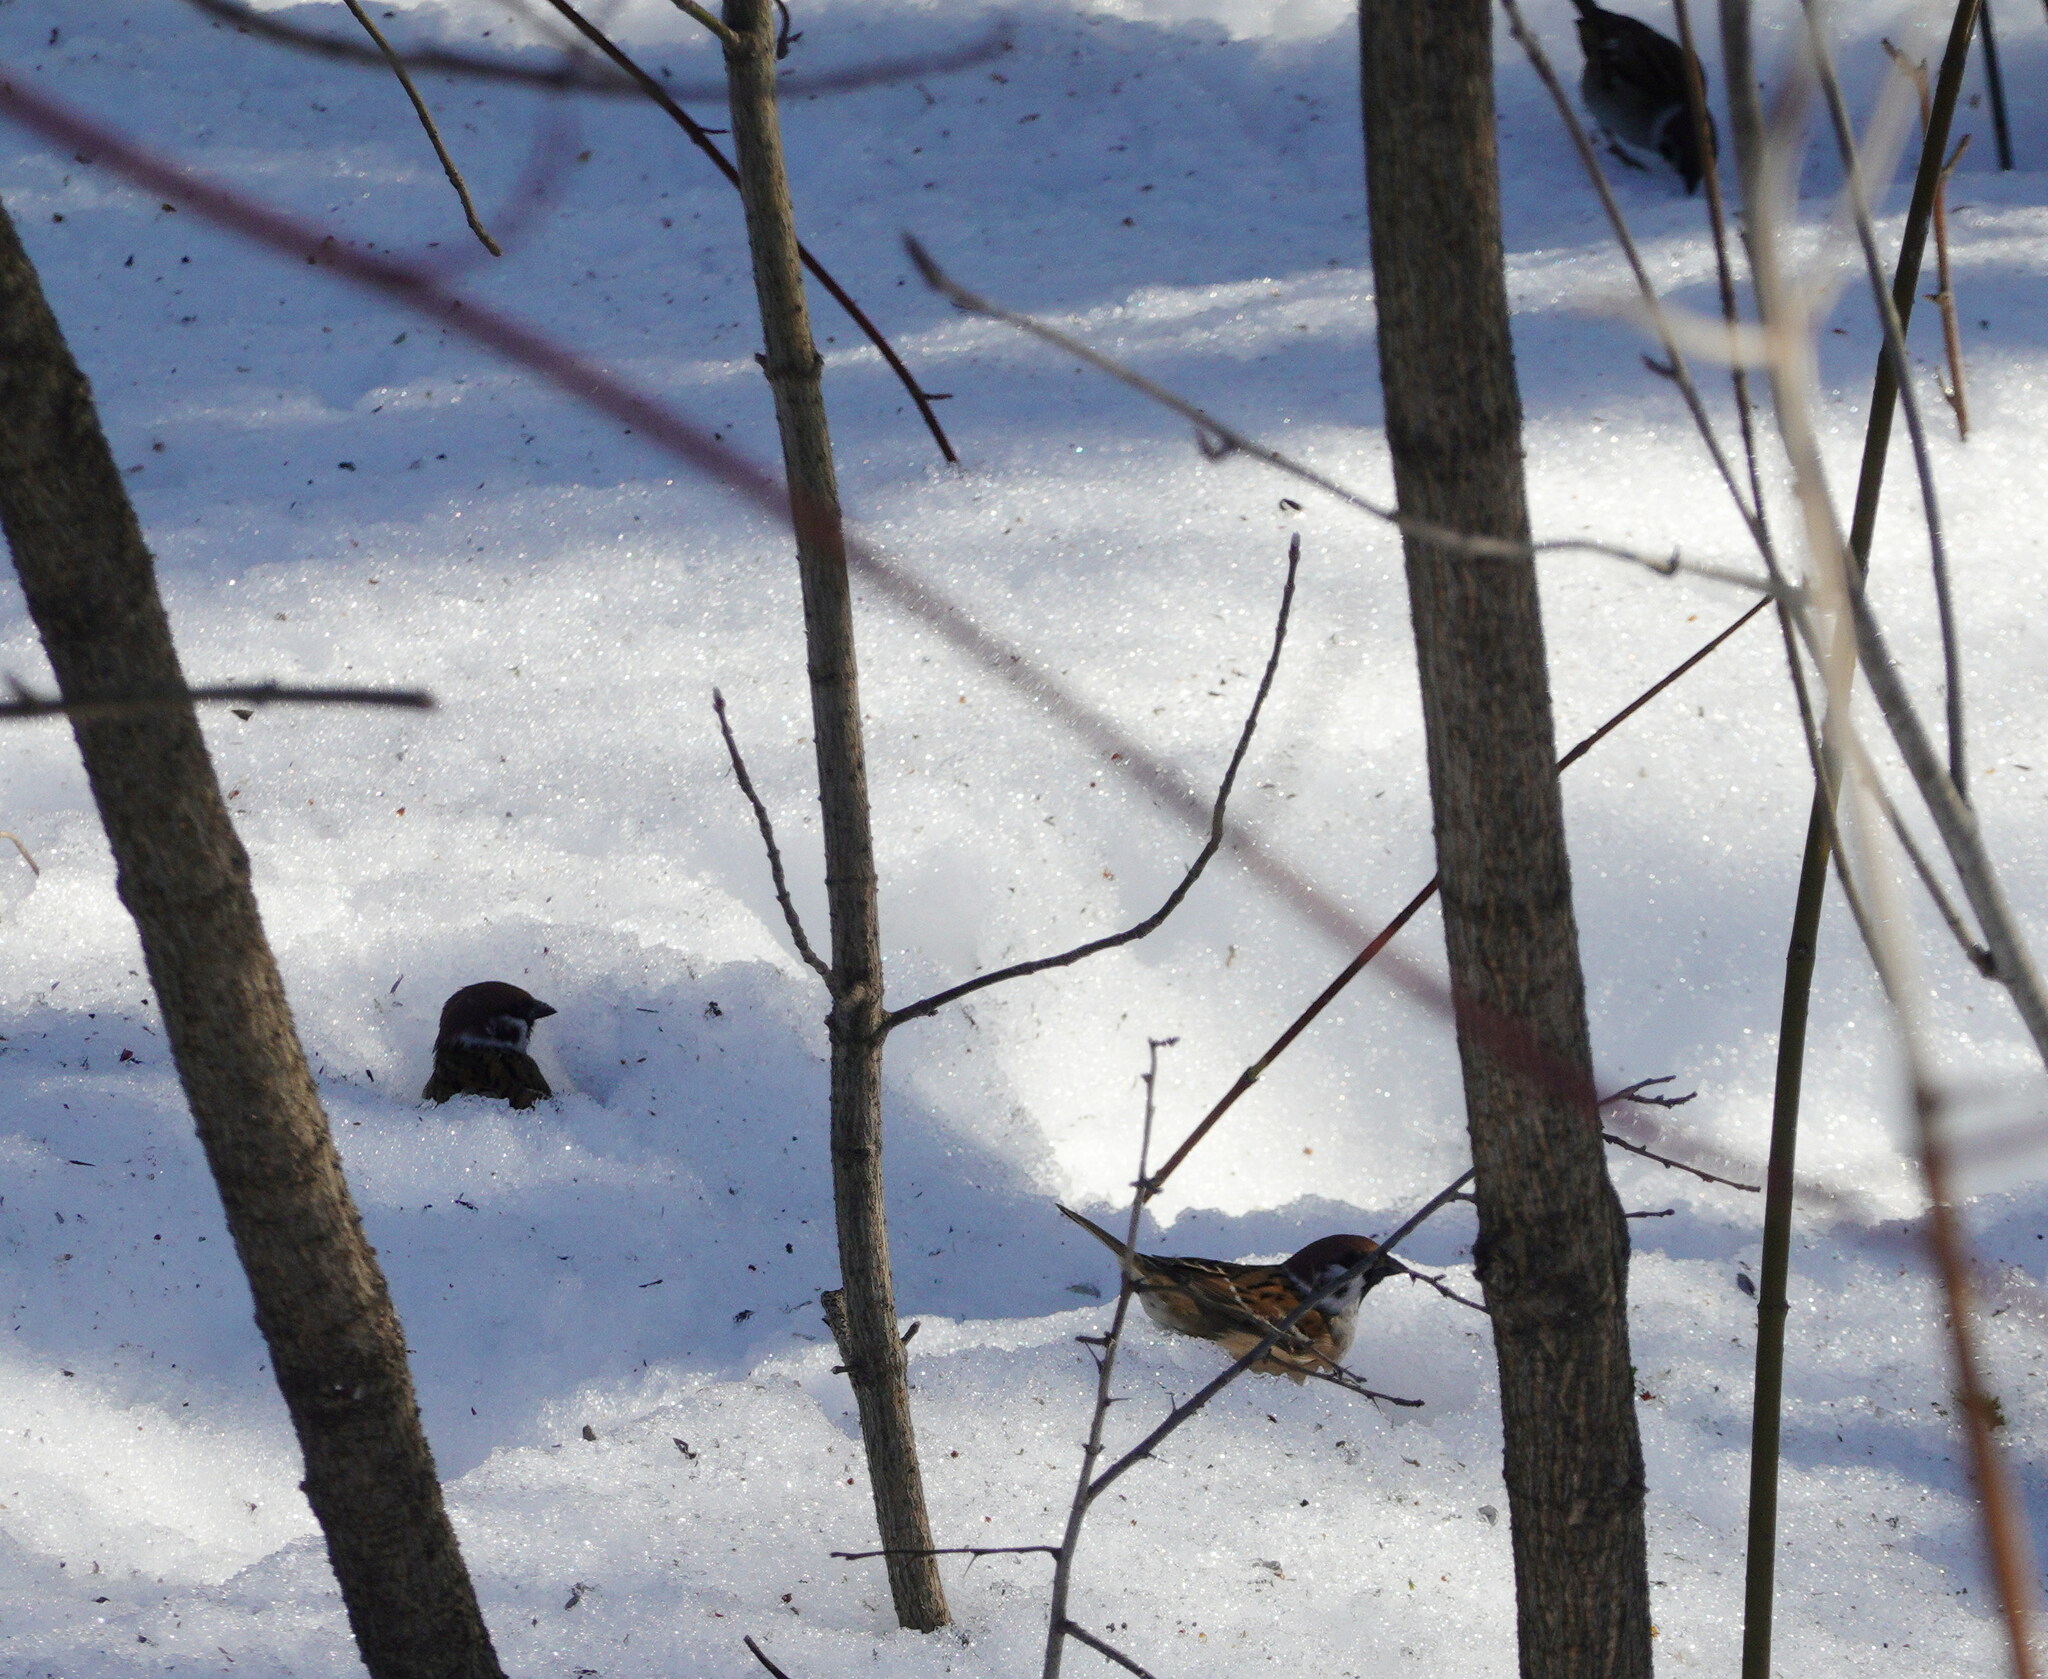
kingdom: Animalia
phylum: Chordata
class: Aves
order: Passeriformes
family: Passeridae
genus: Passer
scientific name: Passer montanus
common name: Eurasian tree sparrow
